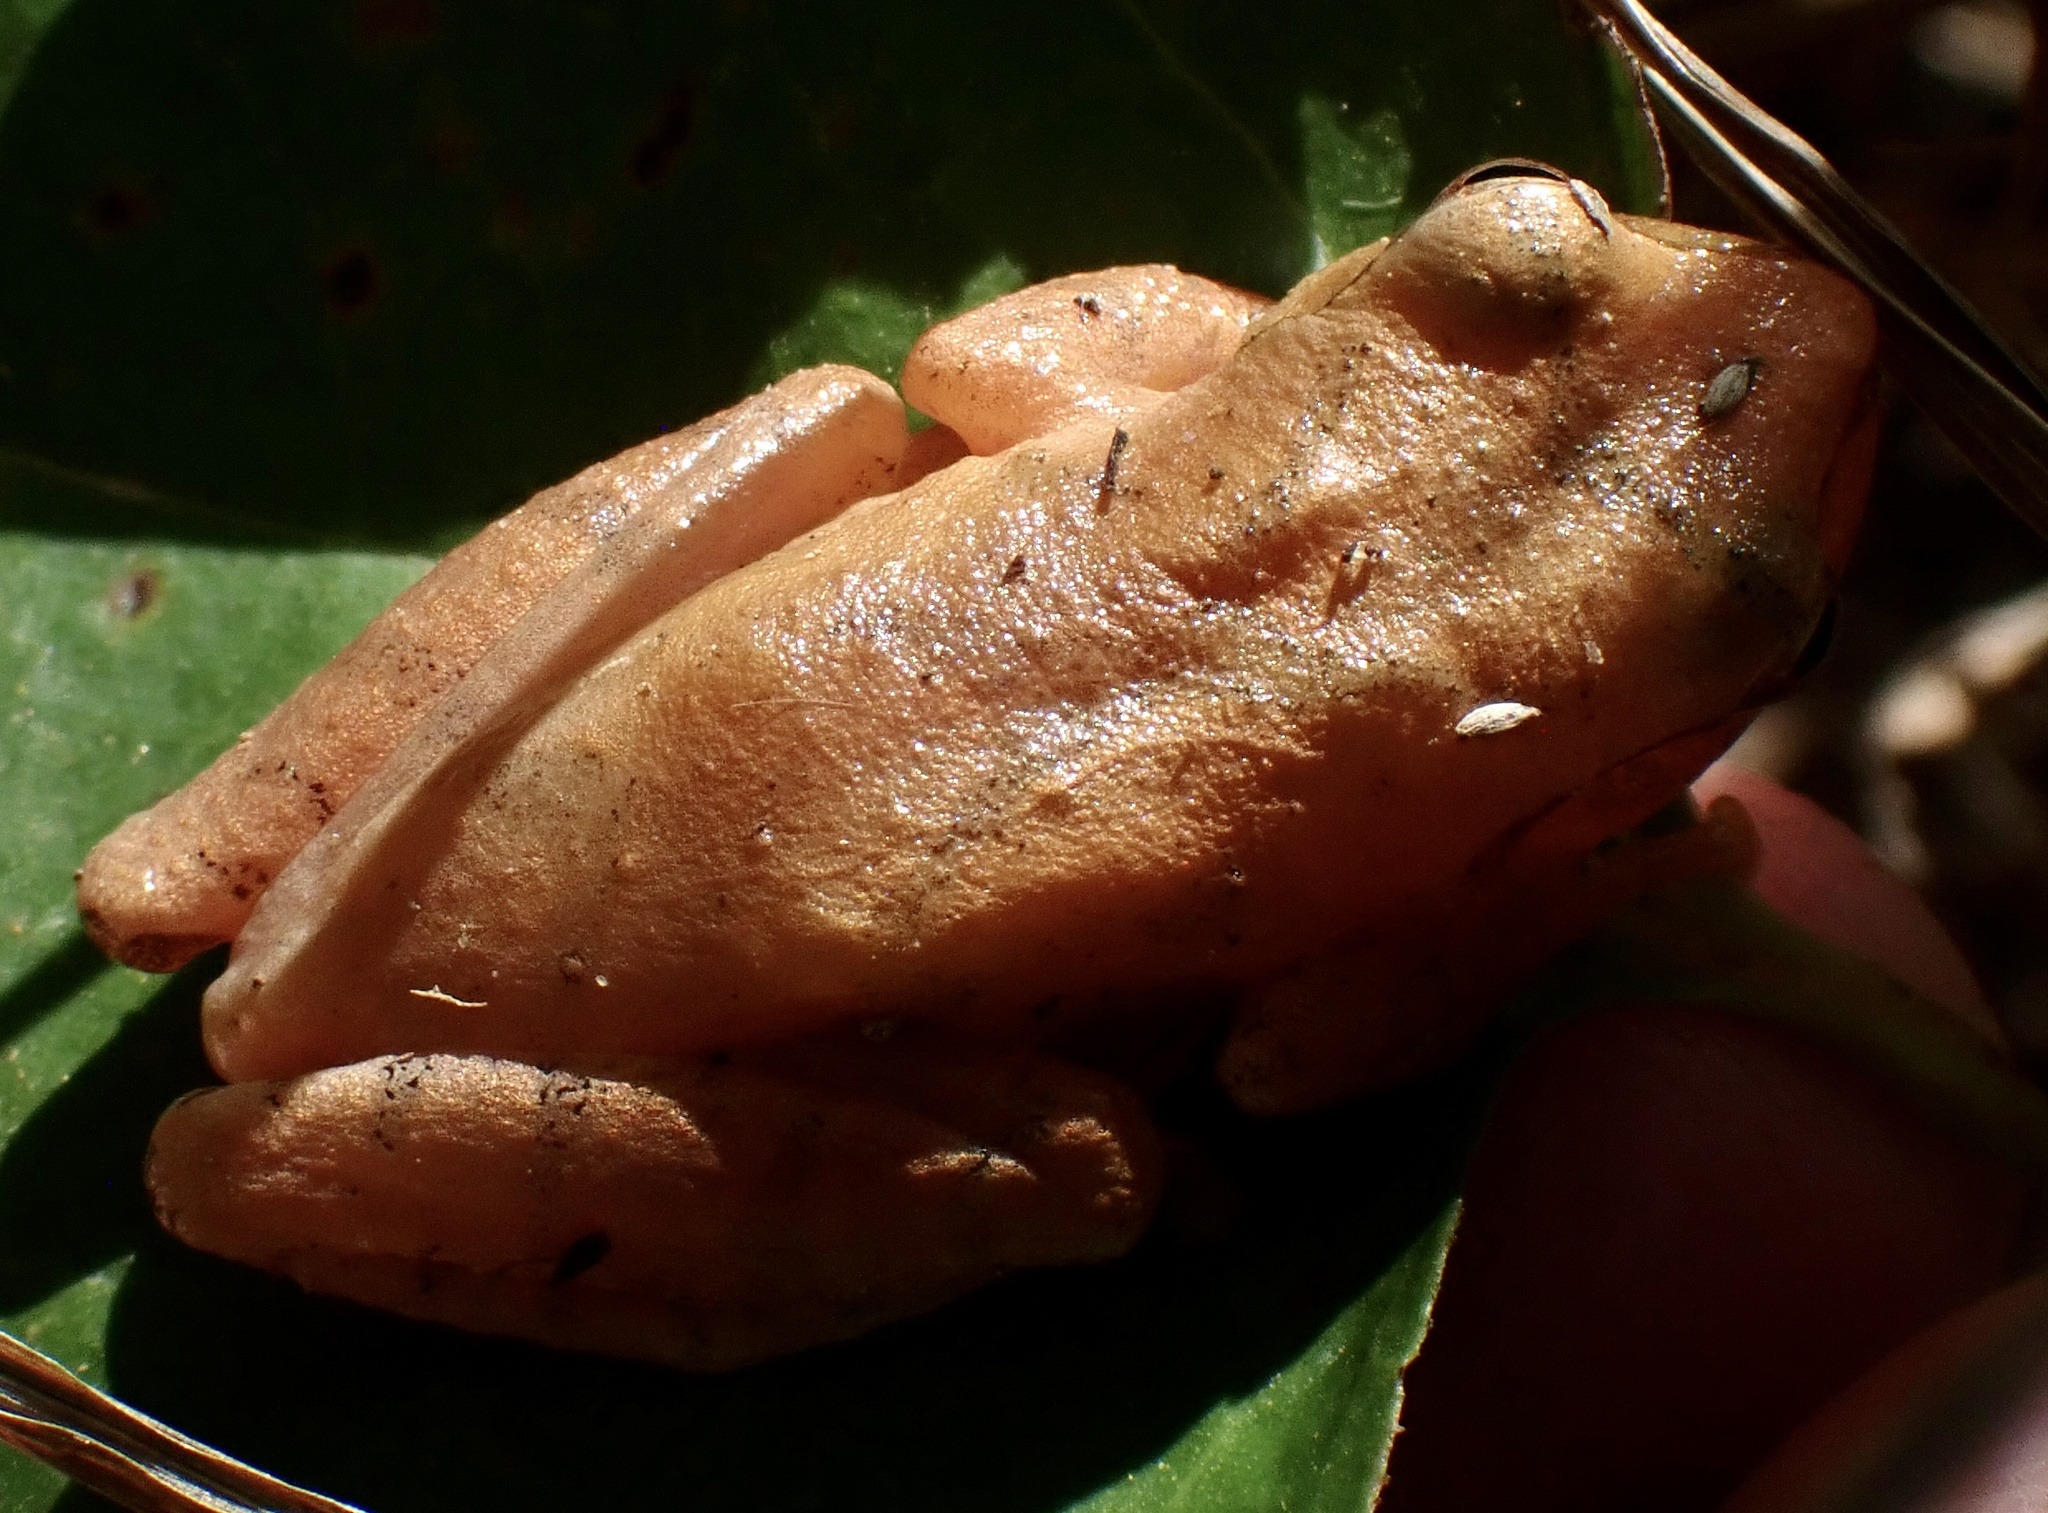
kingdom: Animalia
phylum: Chordata
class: Amphibia
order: Anura
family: Hylidae
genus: Pseudacris
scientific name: Pseudacris crucifer
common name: Spring peeper
